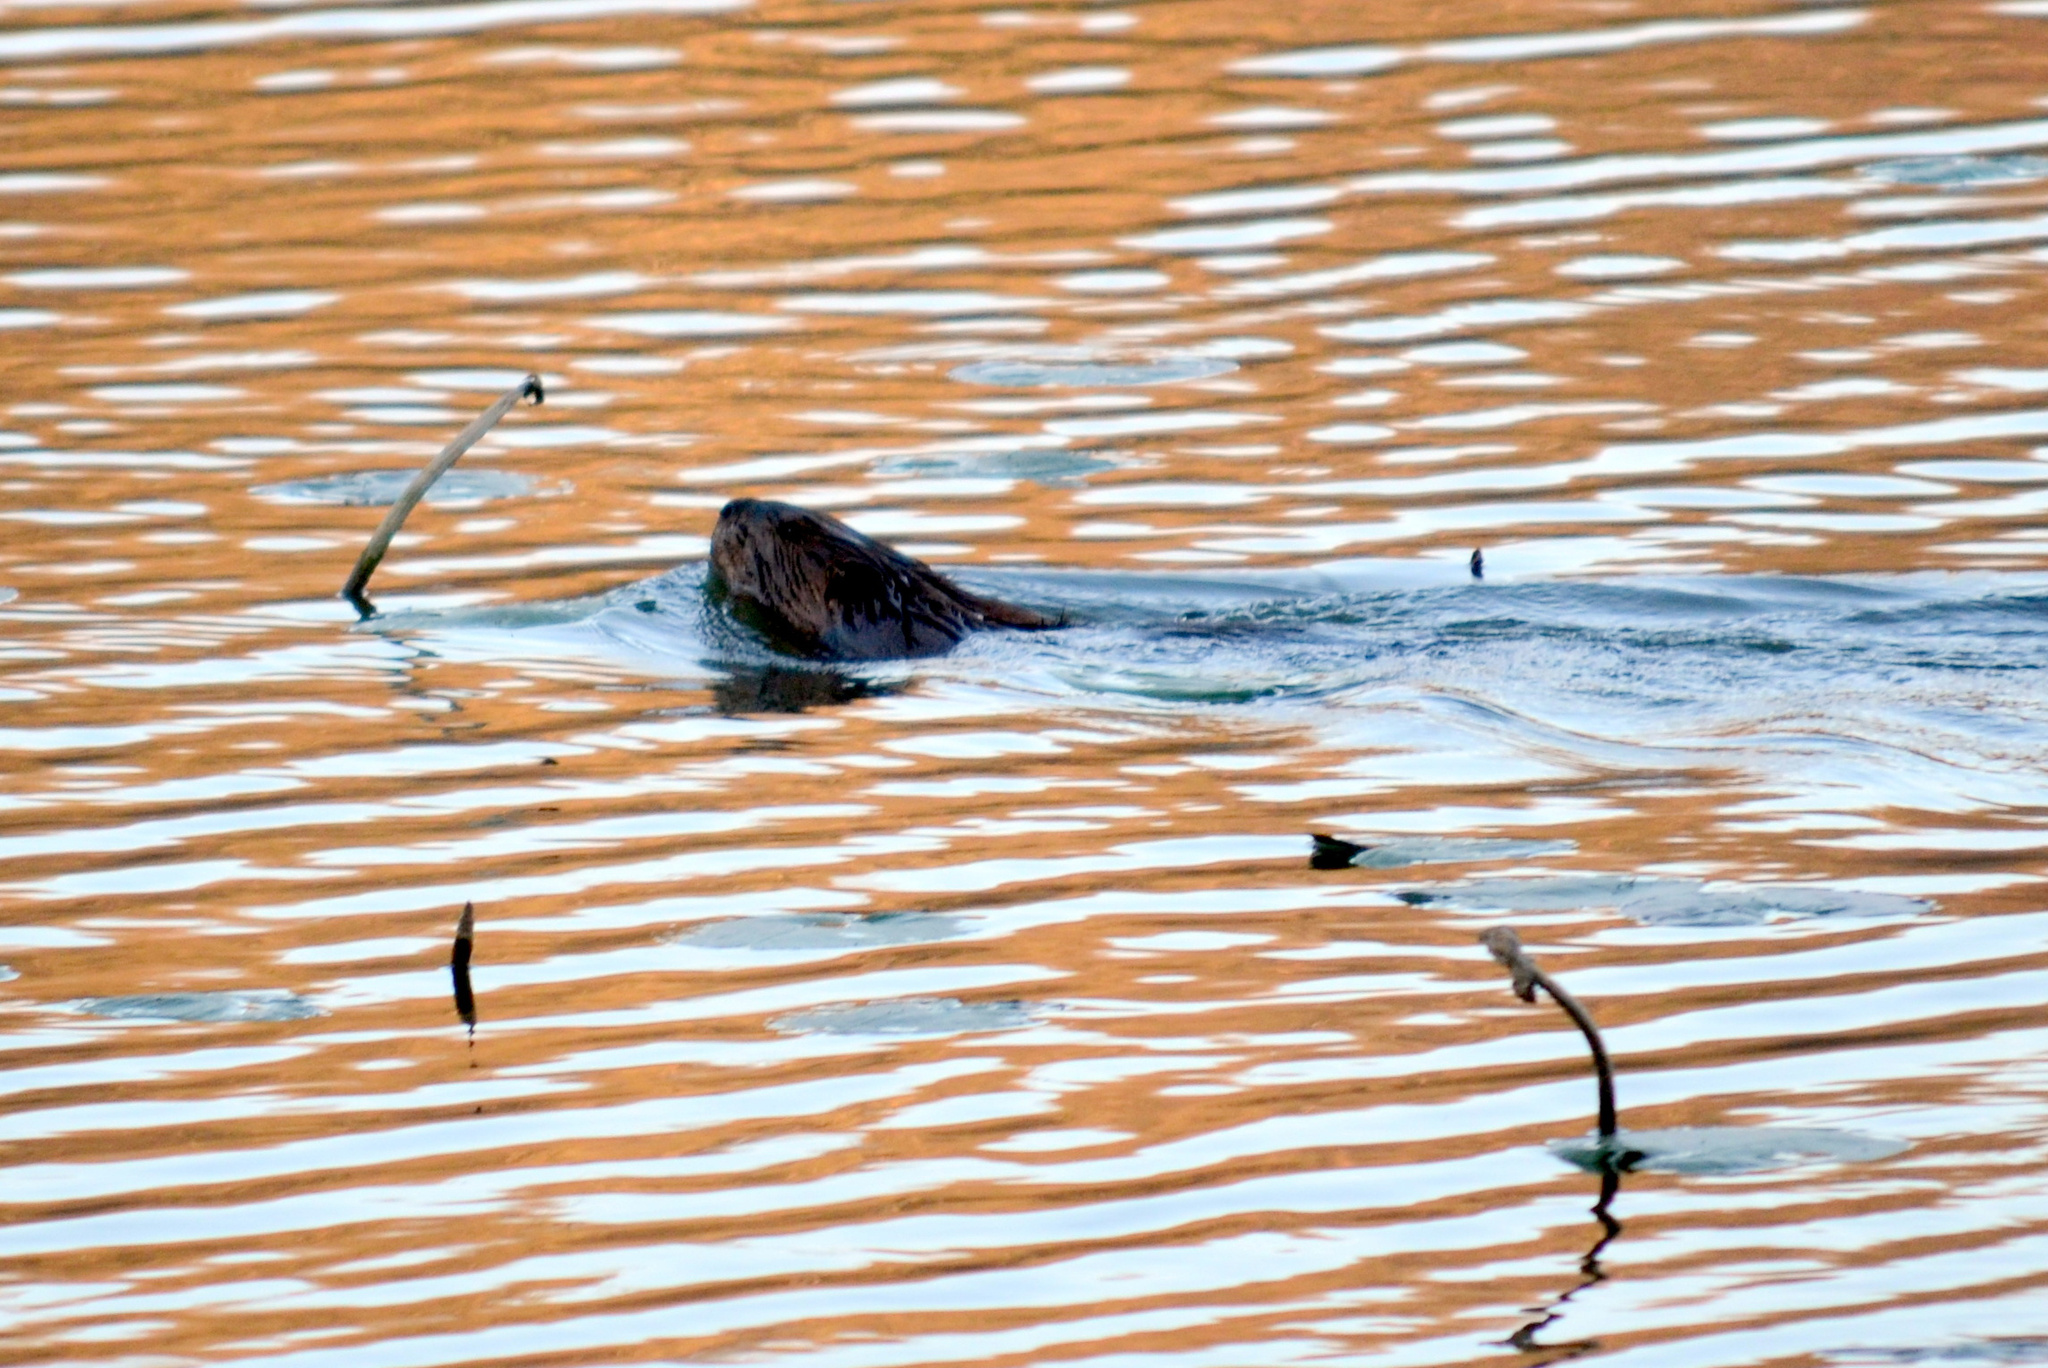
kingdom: Animalia
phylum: Chordata
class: Mammalia
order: Rodentia
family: Castoridae
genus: Castor
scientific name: Castor canadensis
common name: American beaver
